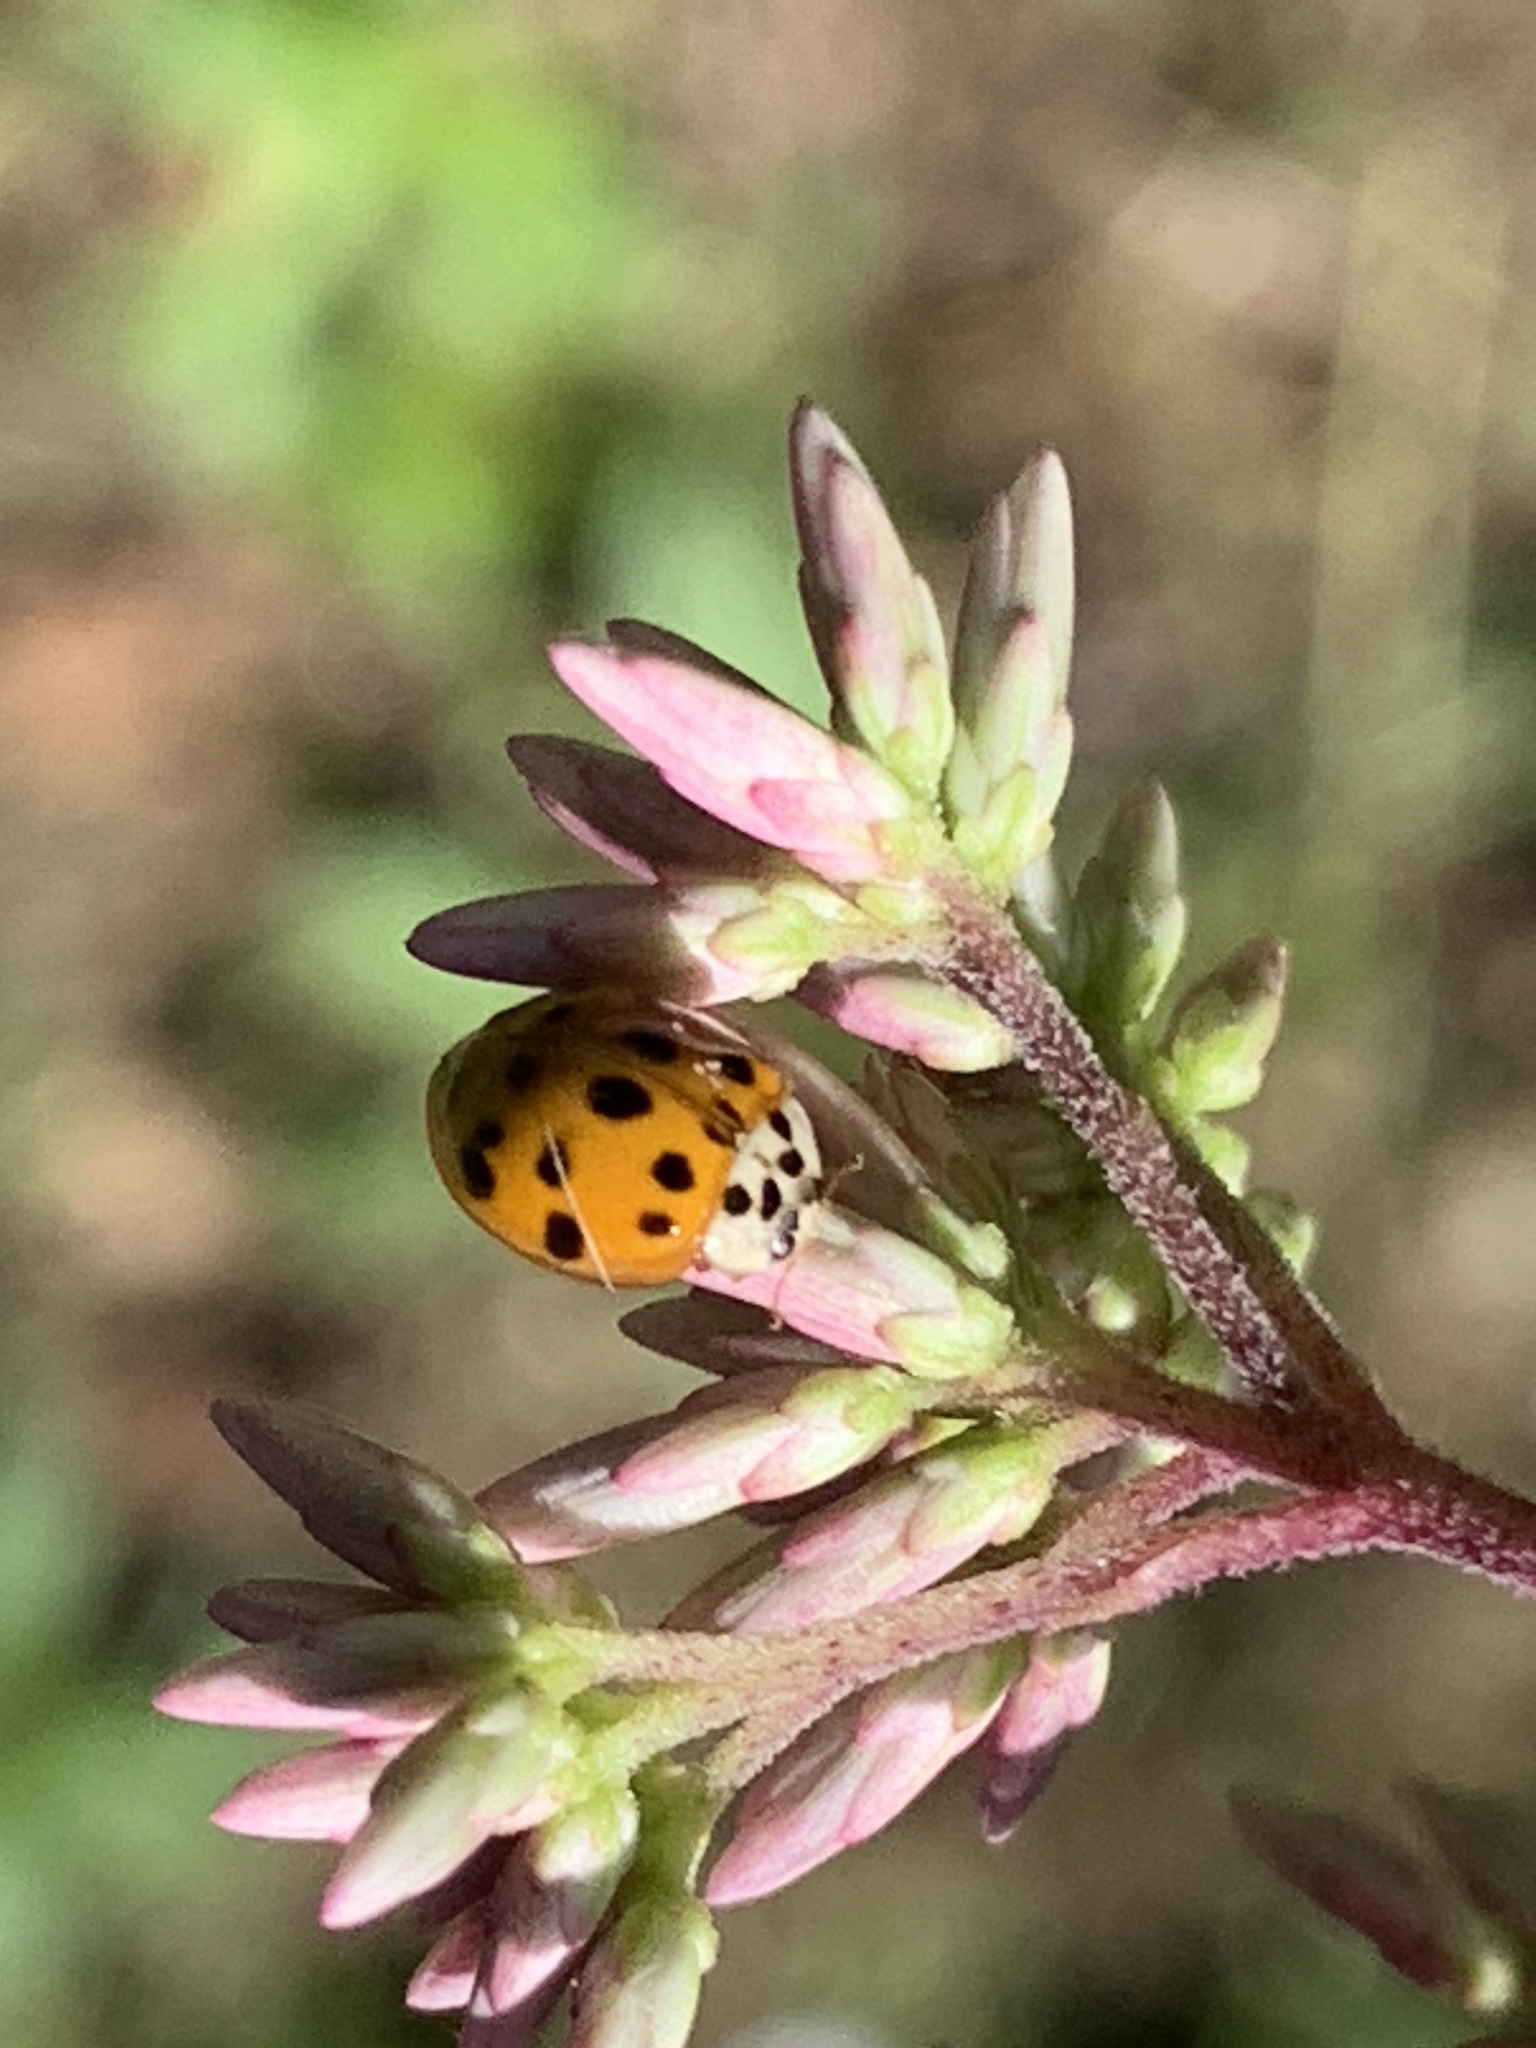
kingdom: Animalia
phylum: Arthropoda
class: Insecta
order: Coleoptera
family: Coccinellidae
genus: Harmonia
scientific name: Harmonia axyridis
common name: Harlequin ladybird
